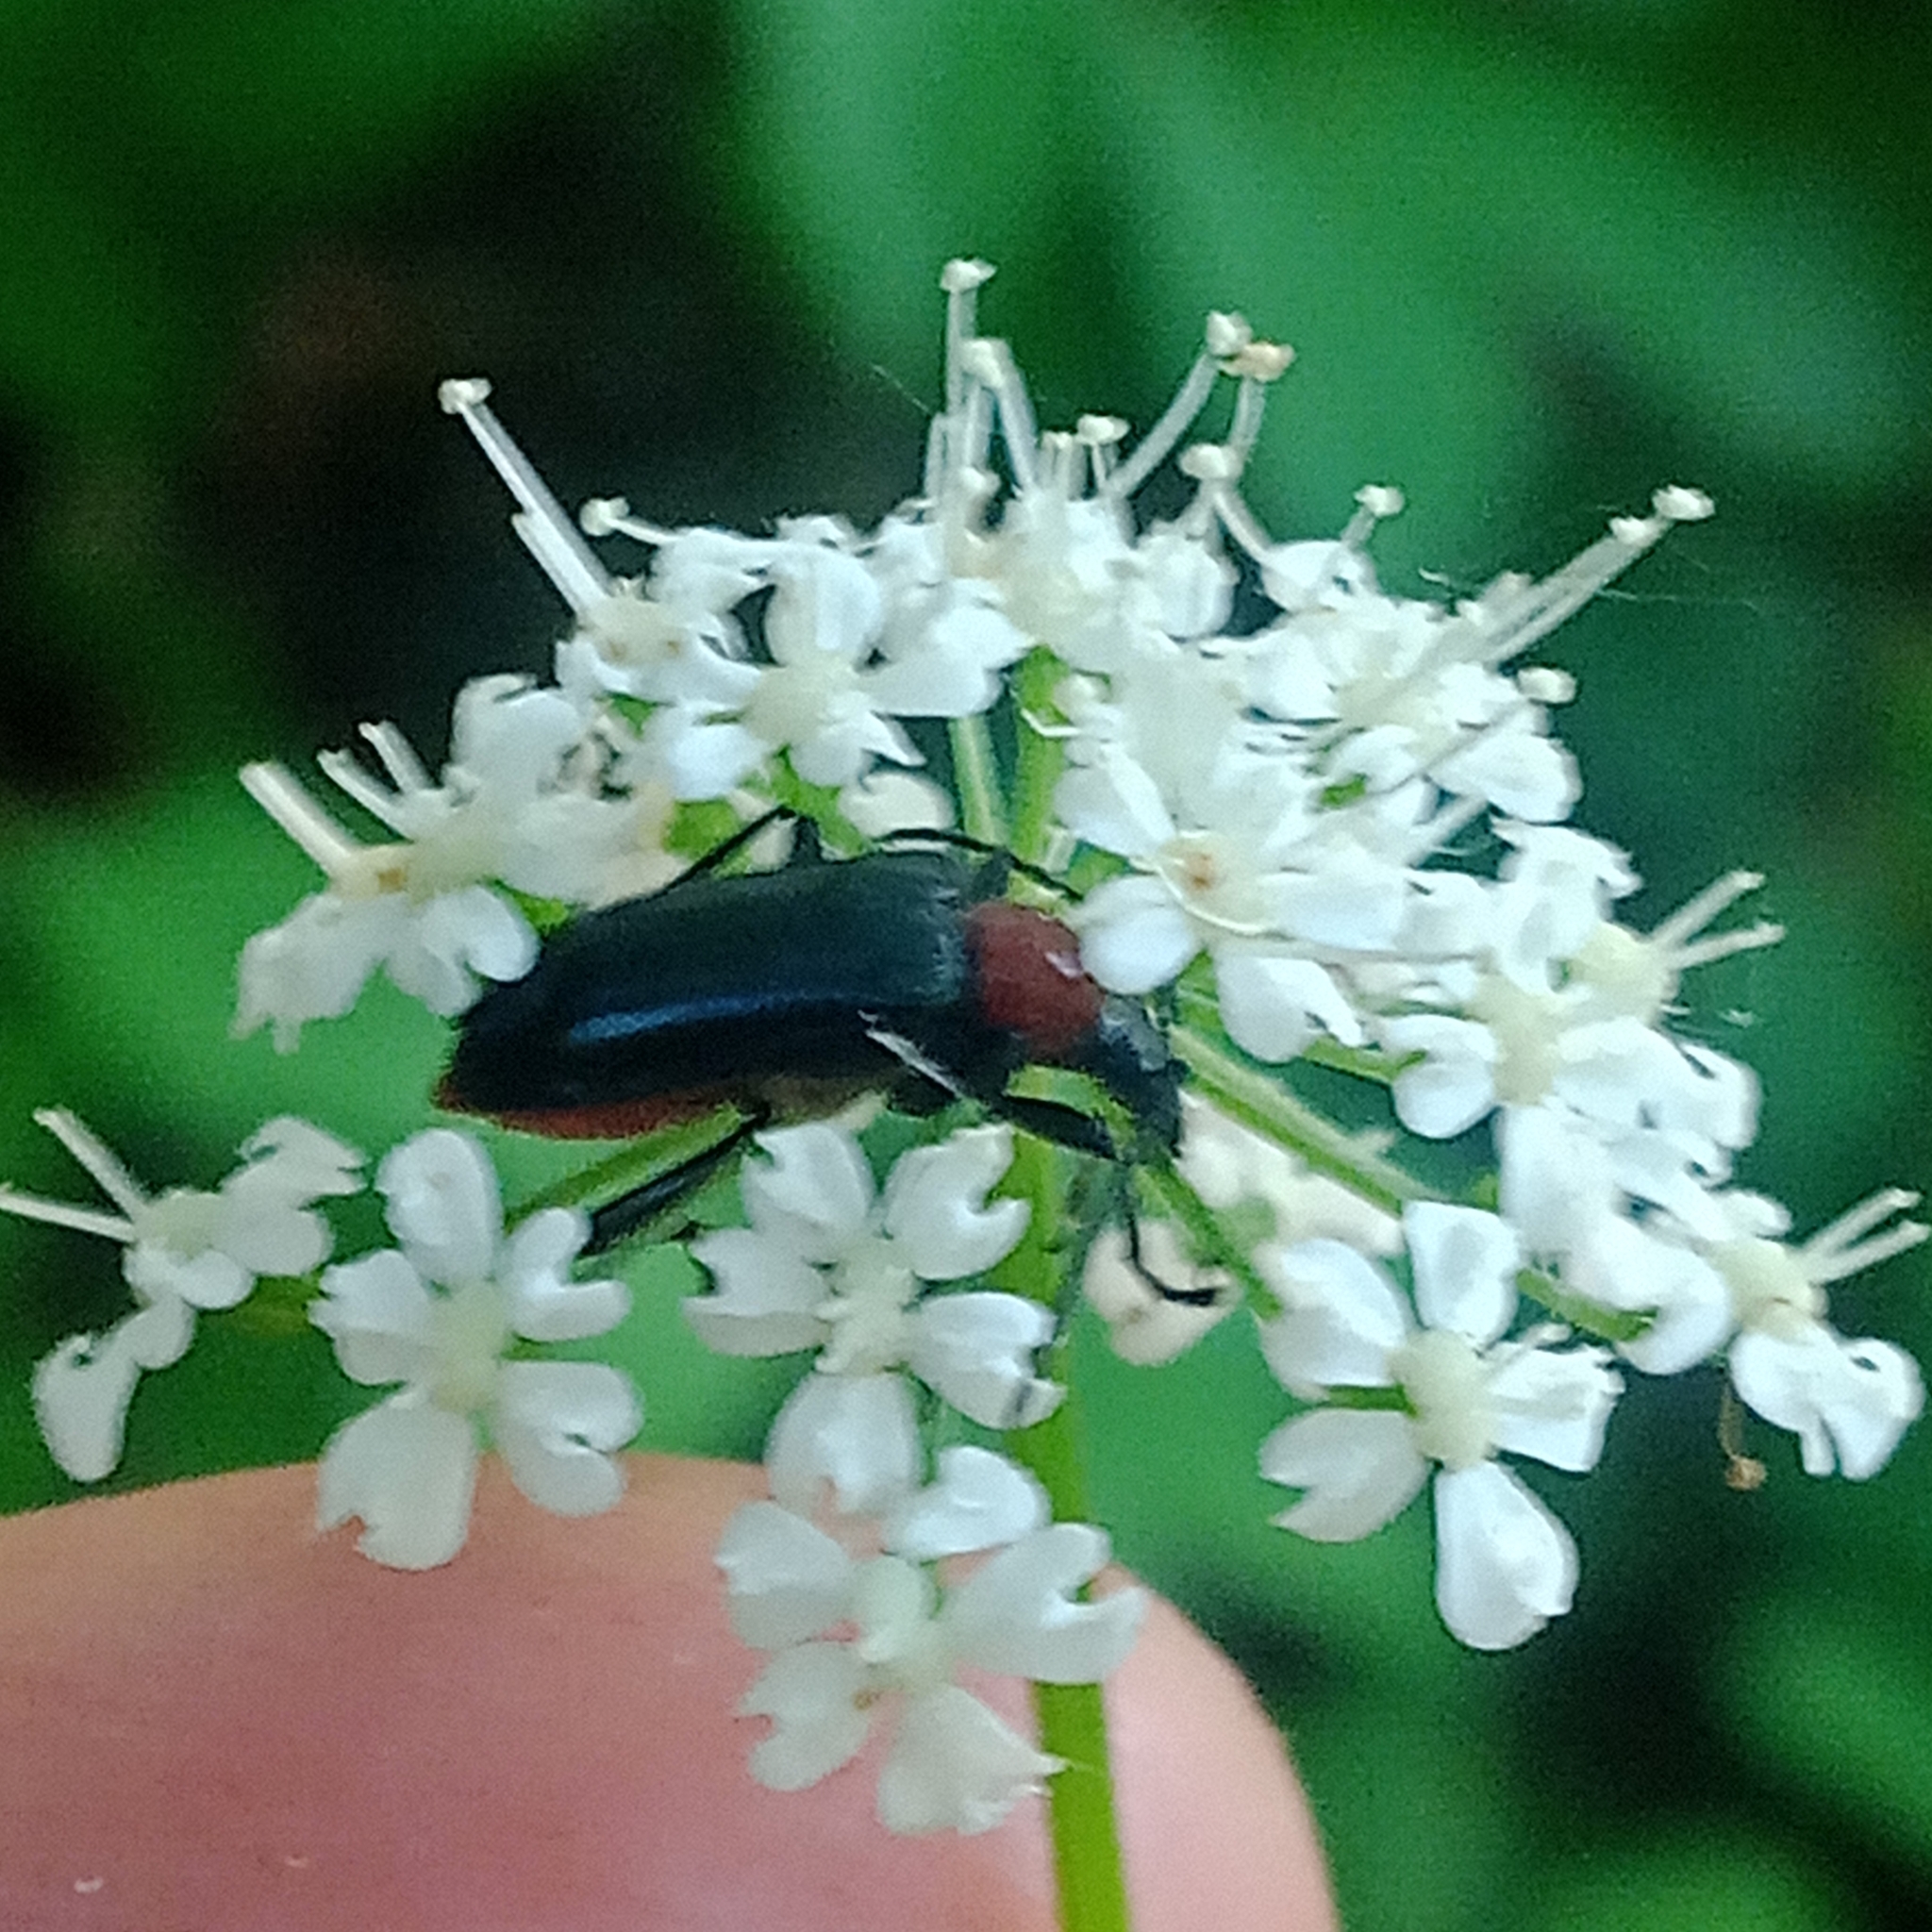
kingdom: Animalia
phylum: Arthropoda
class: Insecta
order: Coleoptera
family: Cerambycidae
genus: Dinoptera
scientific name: Dinoptera collaris
